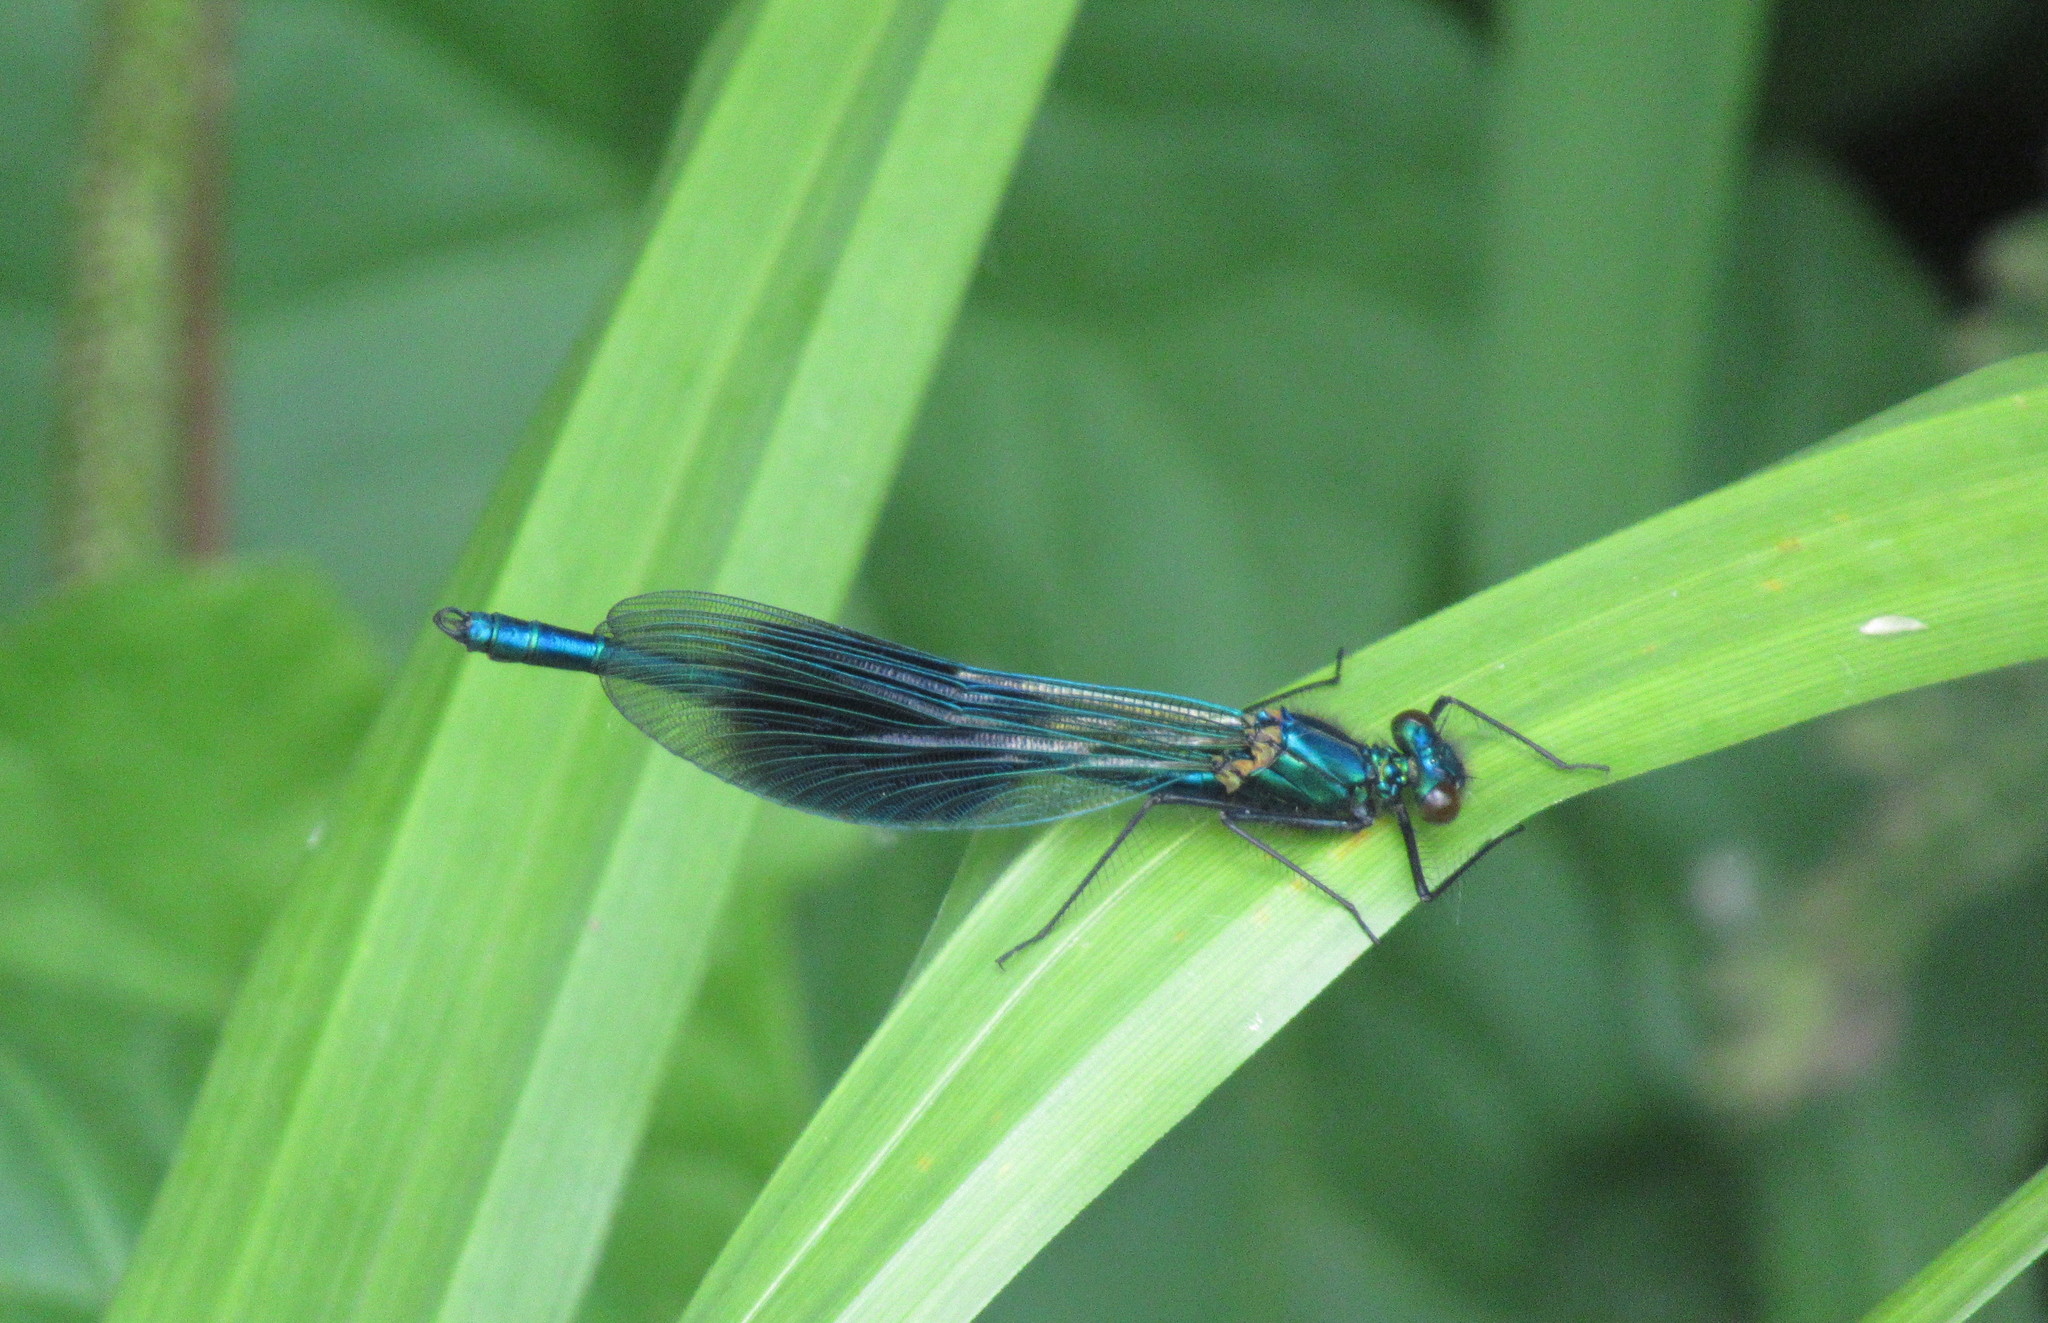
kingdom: Animalia
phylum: Arthropoda
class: Insecta
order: Odonata
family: Calopterygidae
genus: Calopteryx
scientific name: Calopteryx splendens
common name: Banded demoiselle
